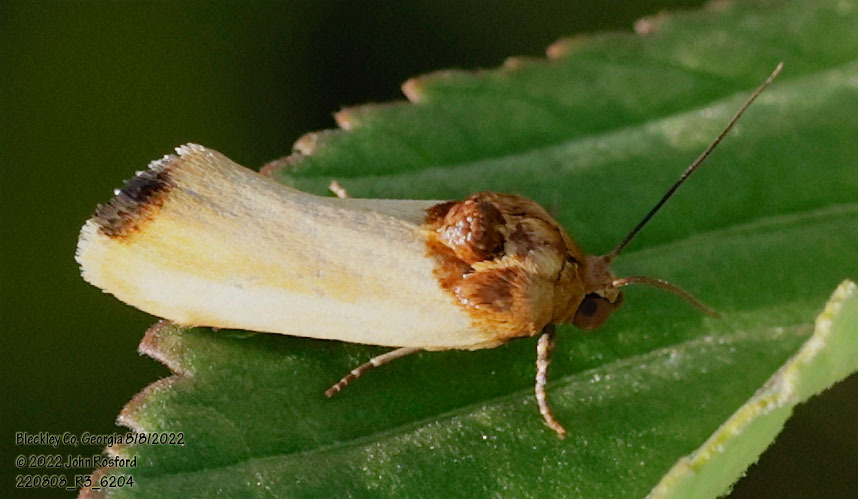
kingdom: Animalia
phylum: Arthropoda
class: Insecta
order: Lepidoptera
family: Noctuidae
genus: Spragueia
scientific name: Spragueia apicalis
